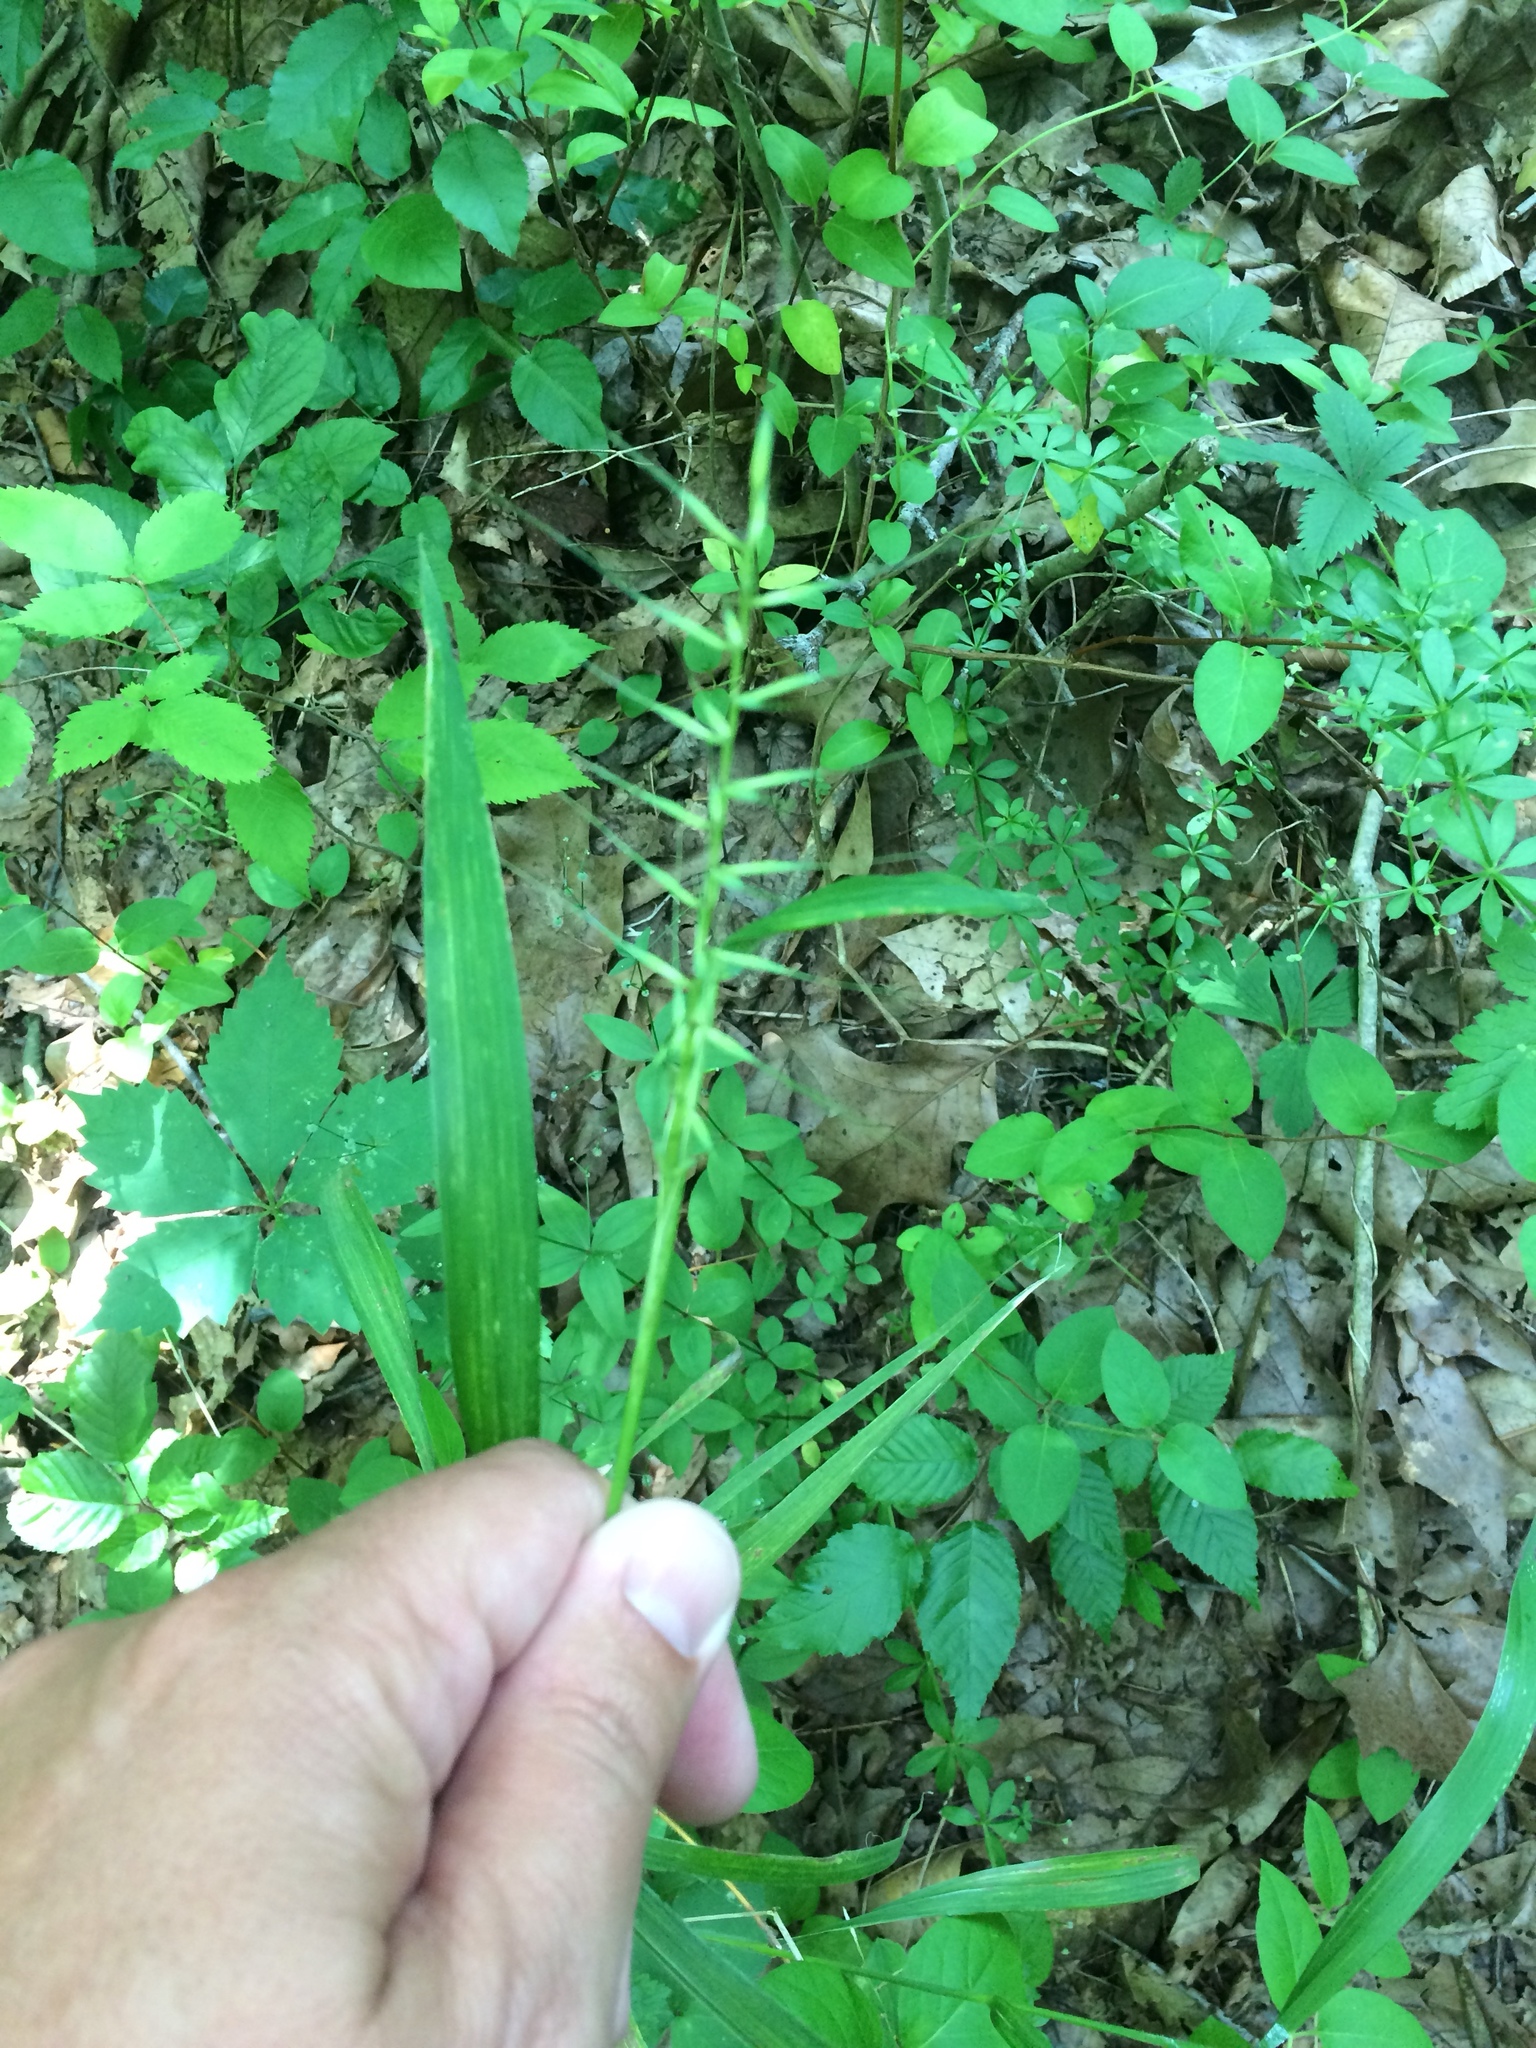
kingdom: Plantae
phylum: Tracheophyta
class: Liliopsida
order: Poales
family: Poaceae
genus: Elymus
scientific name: Elymus hystrix
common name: Bottlebrush grass
